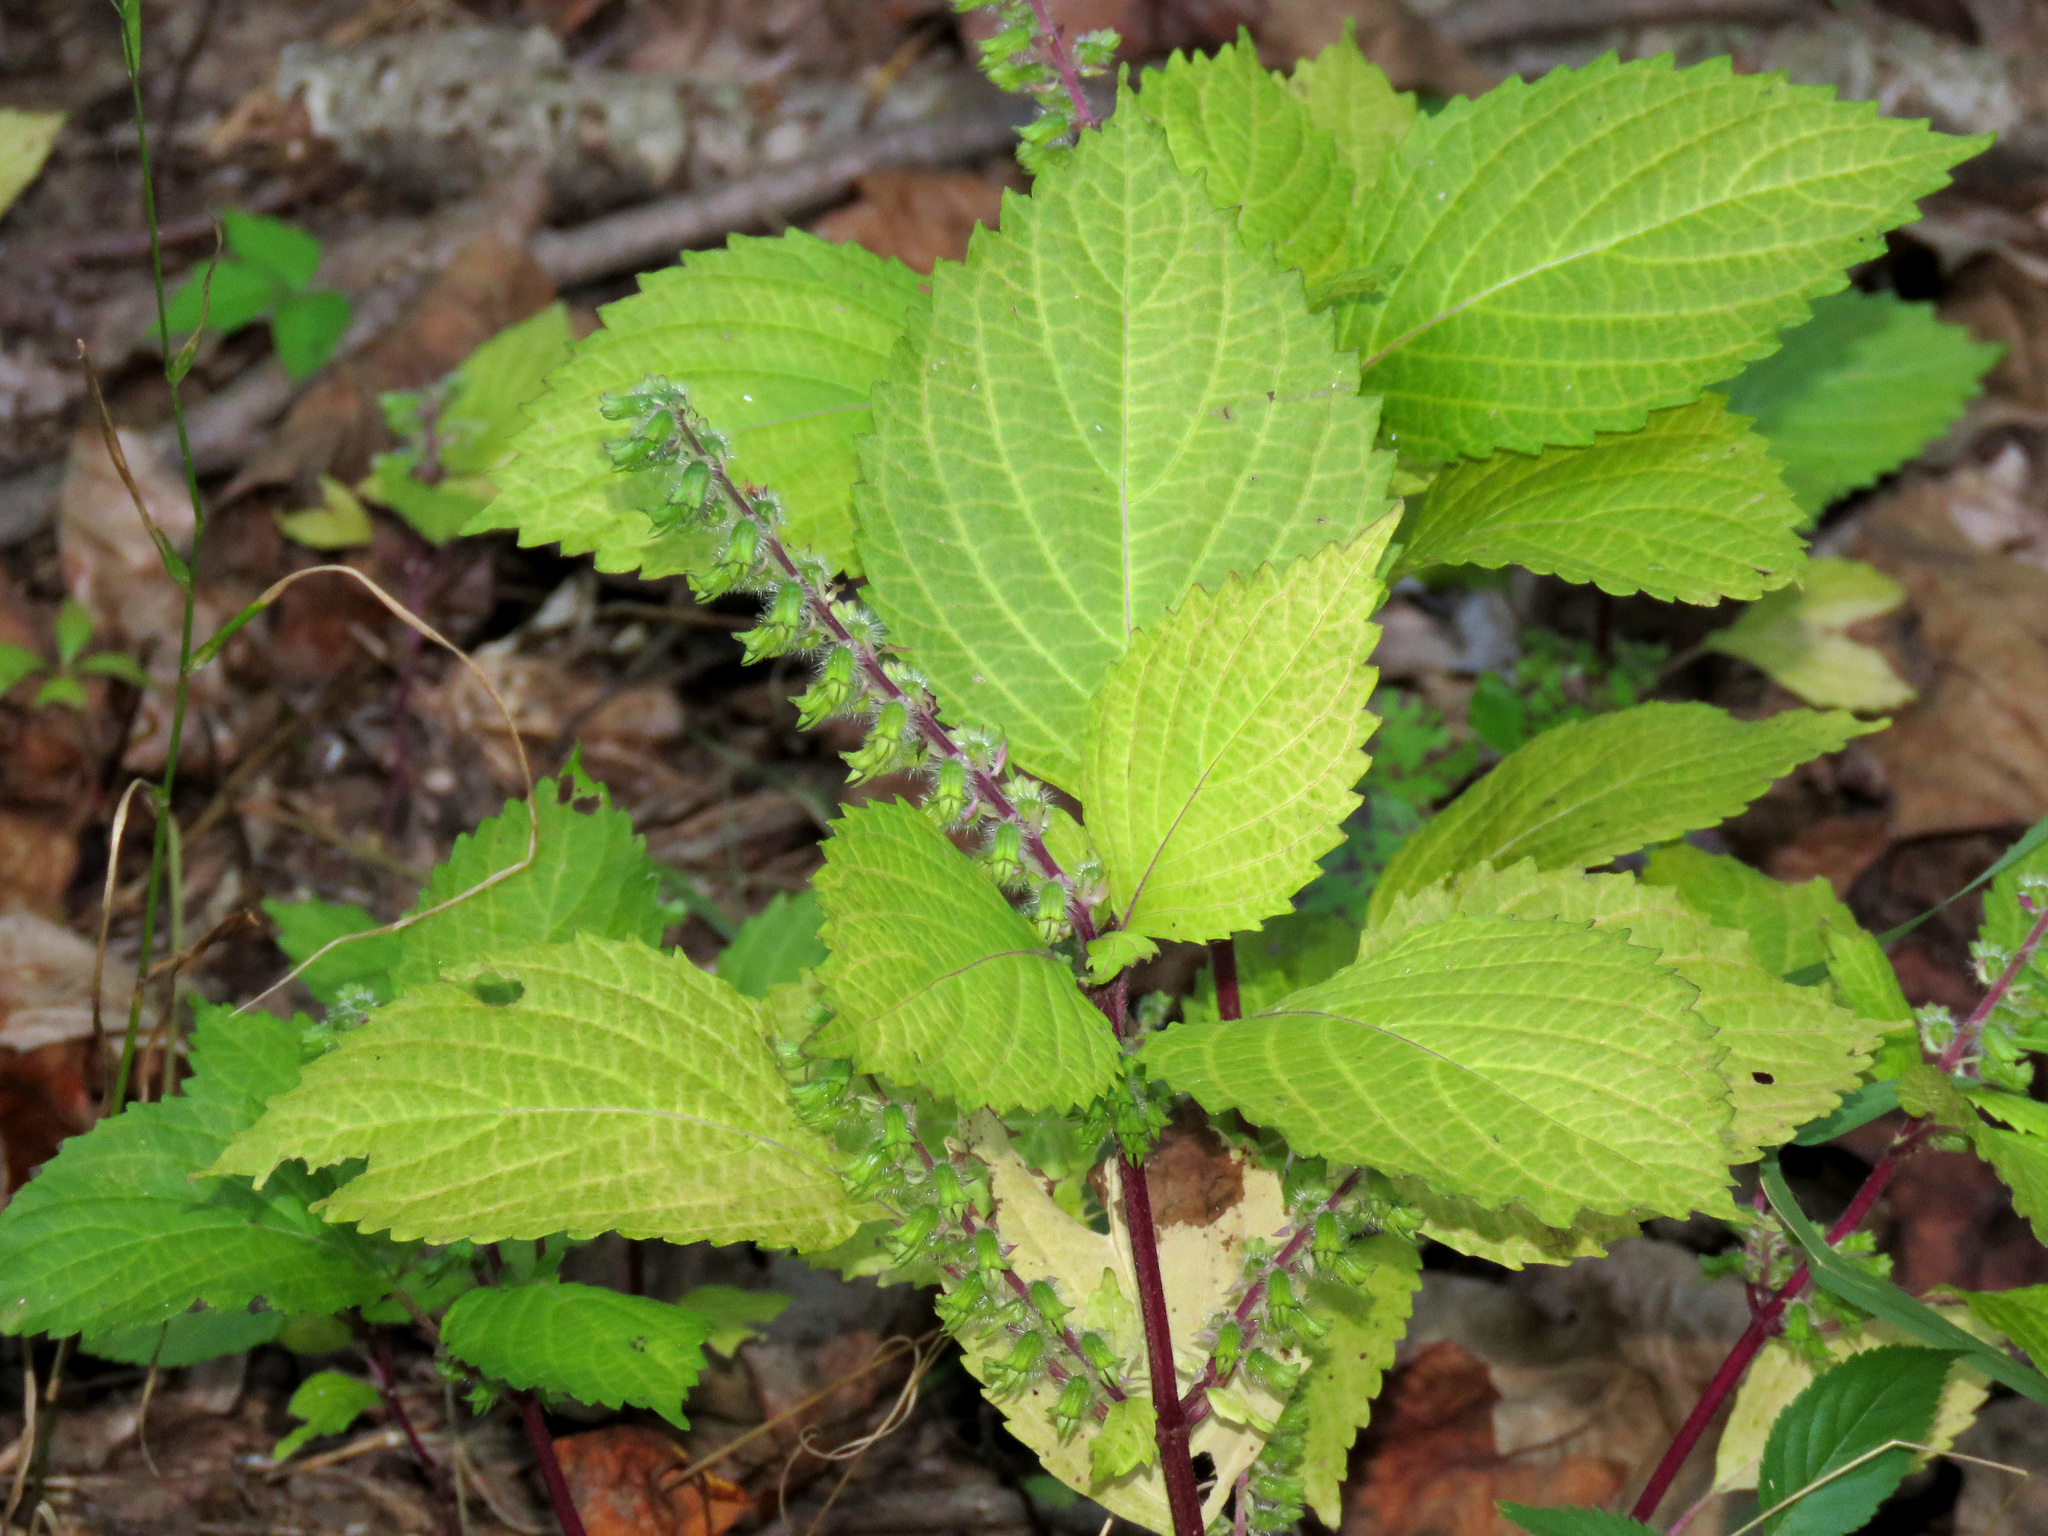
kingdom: Plantae
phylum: Tracheophyta
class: Magnoliopsida
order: Lamiales
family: Lamiaceae
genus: Perilla
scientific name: Perilla frutescens
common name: Perilla
